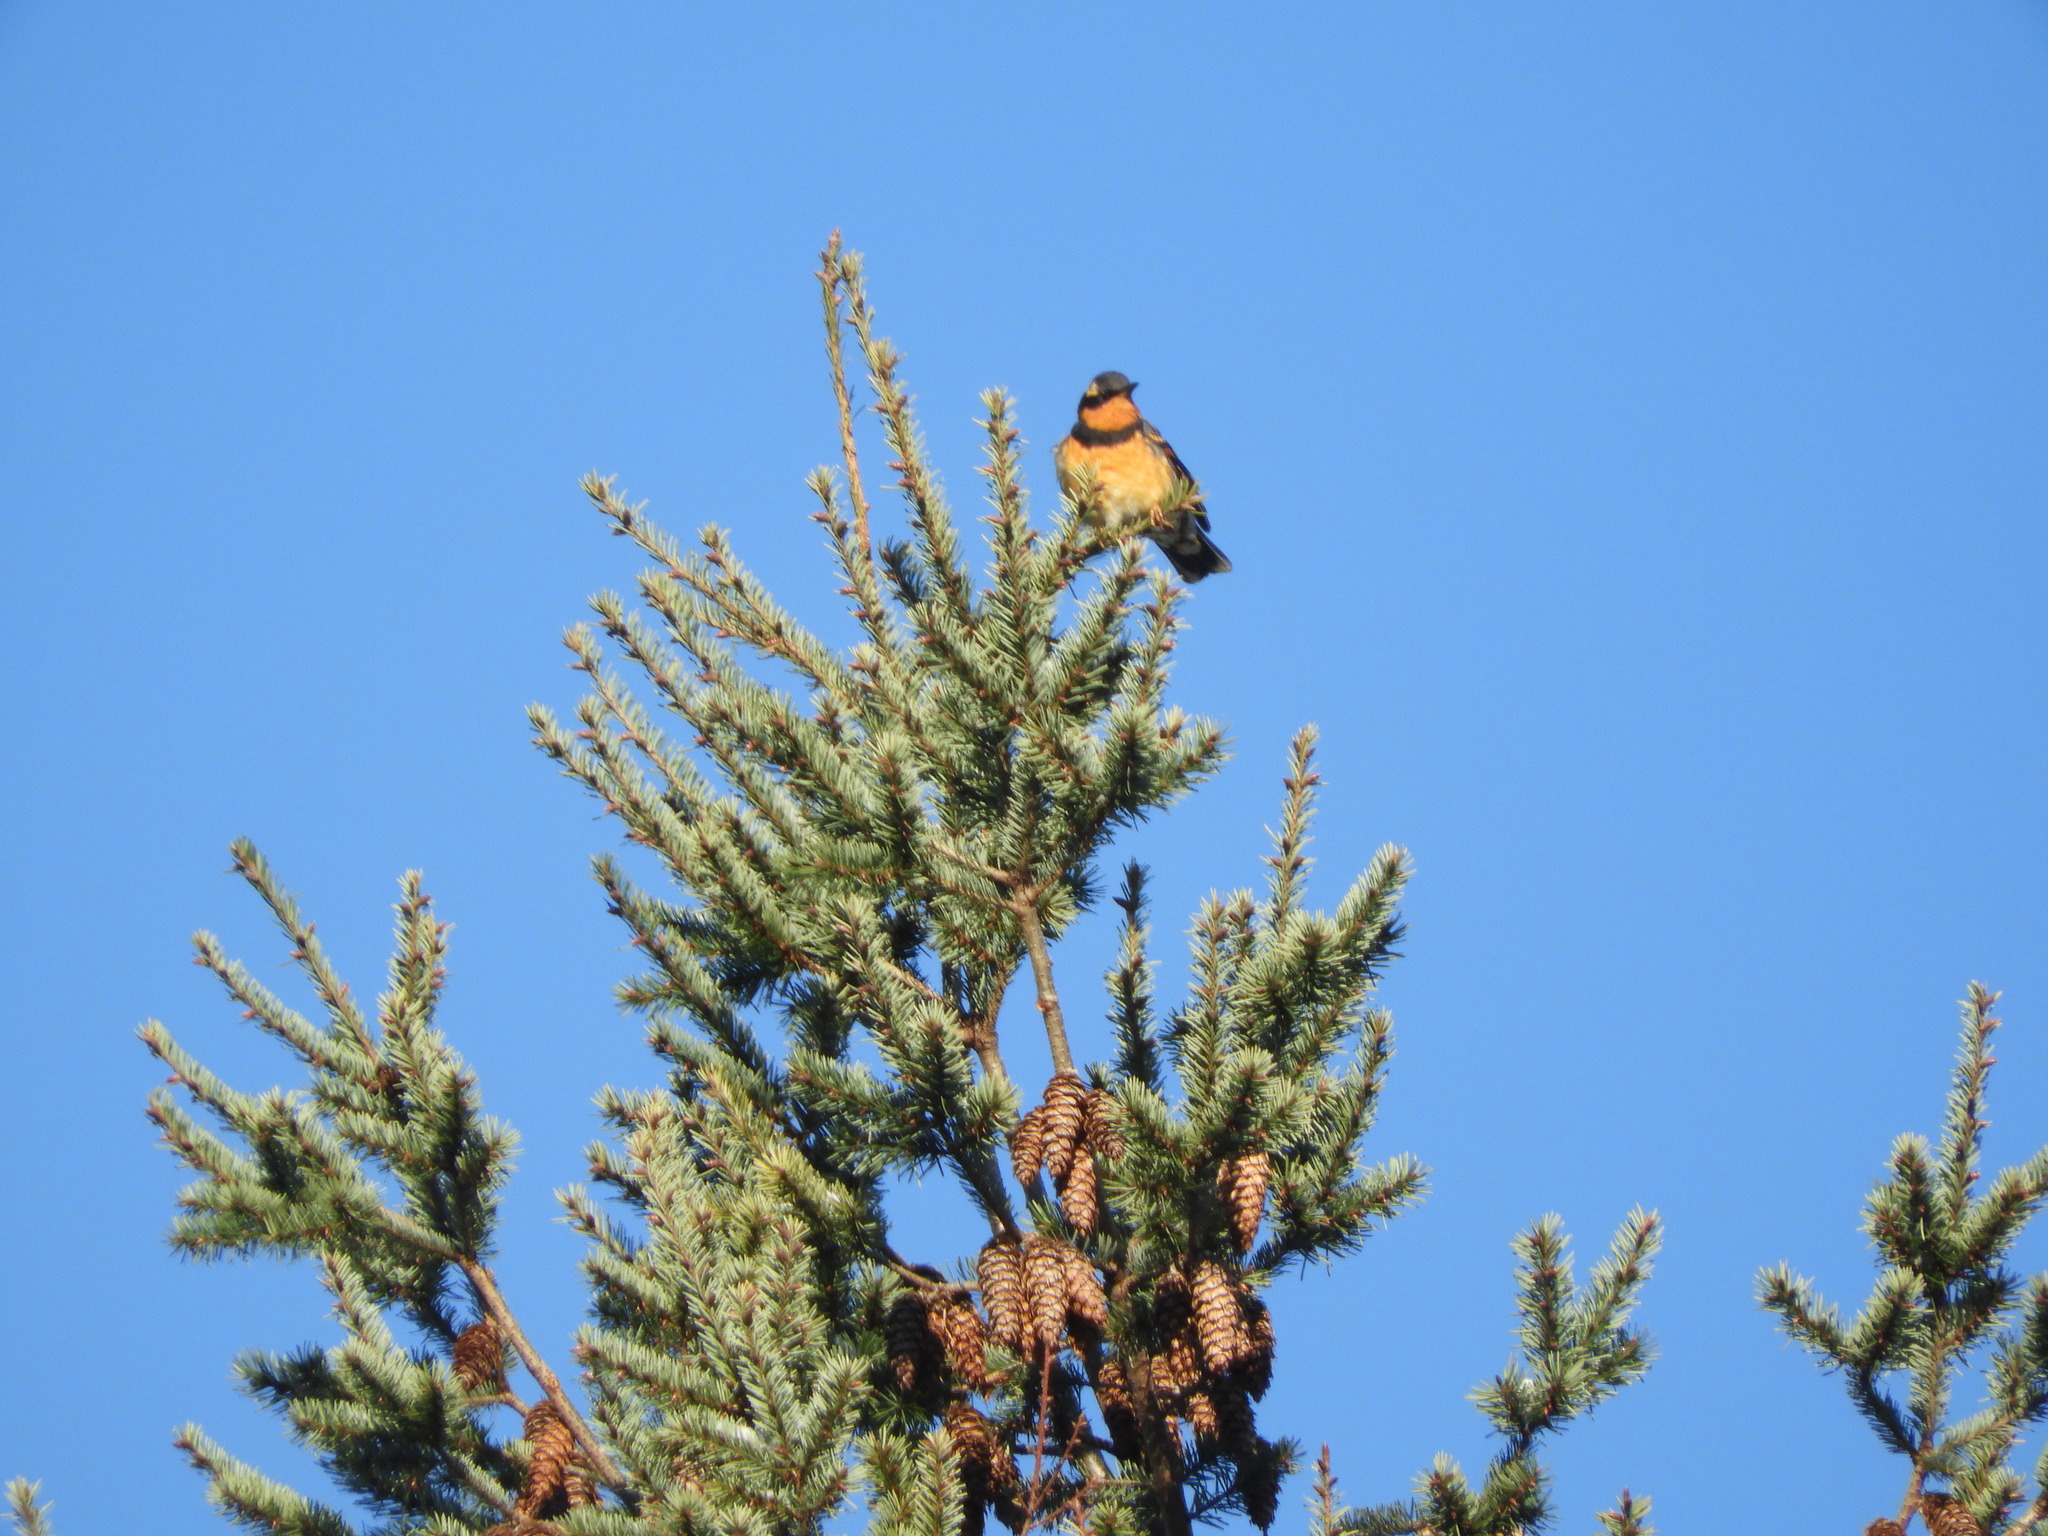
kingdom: Animalia
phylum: Chordata
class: Aves
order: Passeriformes
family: Turdidae
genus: Ixoreus
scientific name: Ixoreus naevius
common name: Varied thrush
